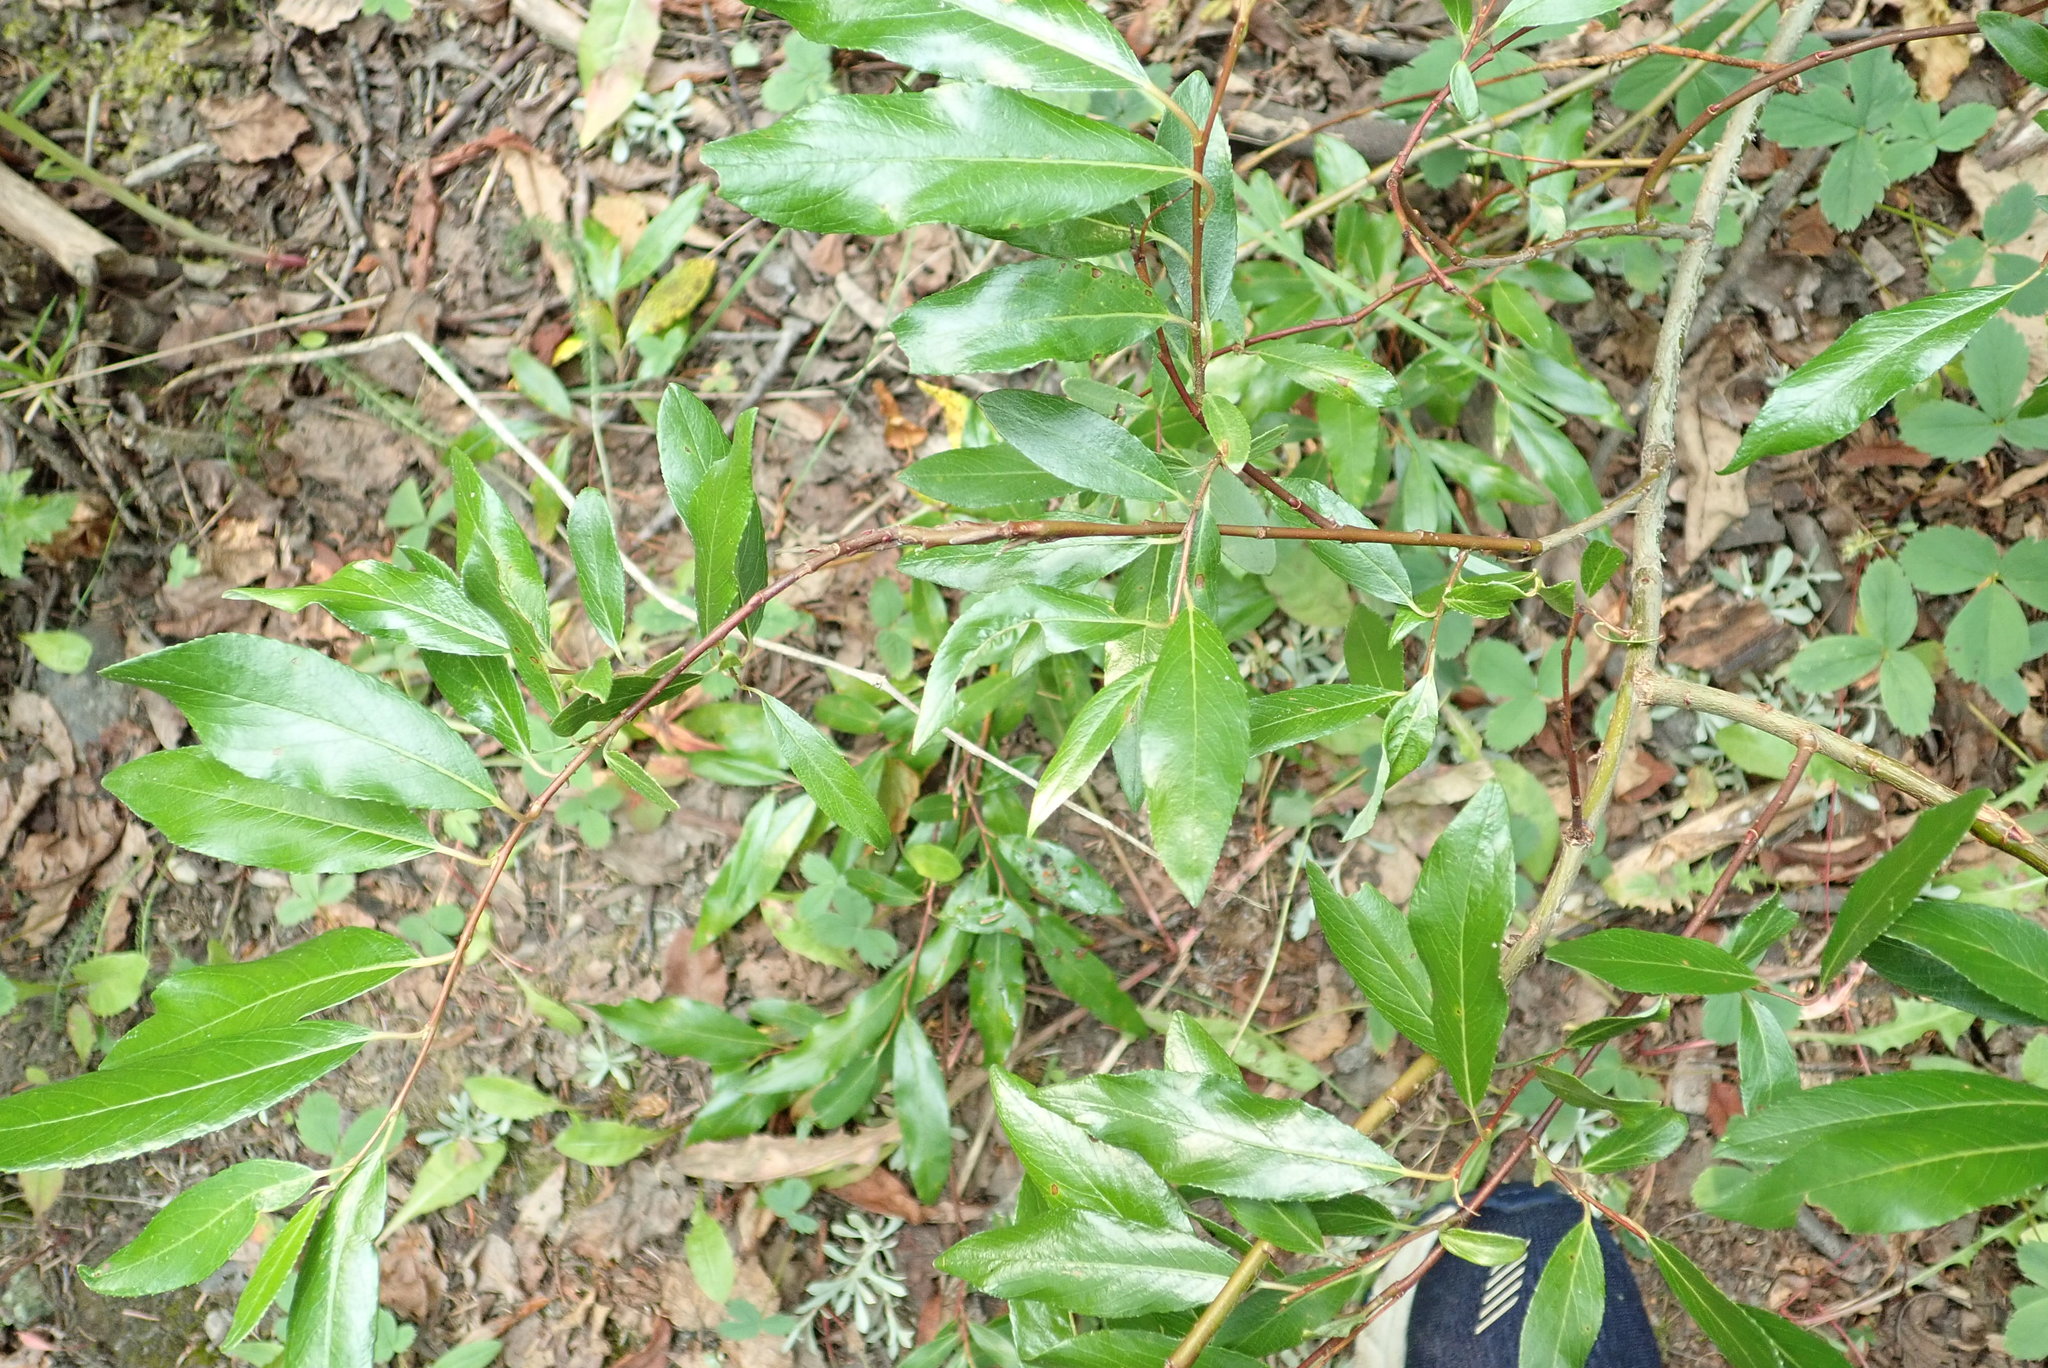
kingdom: Plantae
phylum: Tracheophyta
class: Magnoliopsida
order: Malpighiales
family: Salicaceae
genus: Salix
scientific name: Salix planifolia
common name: Mountain willow
